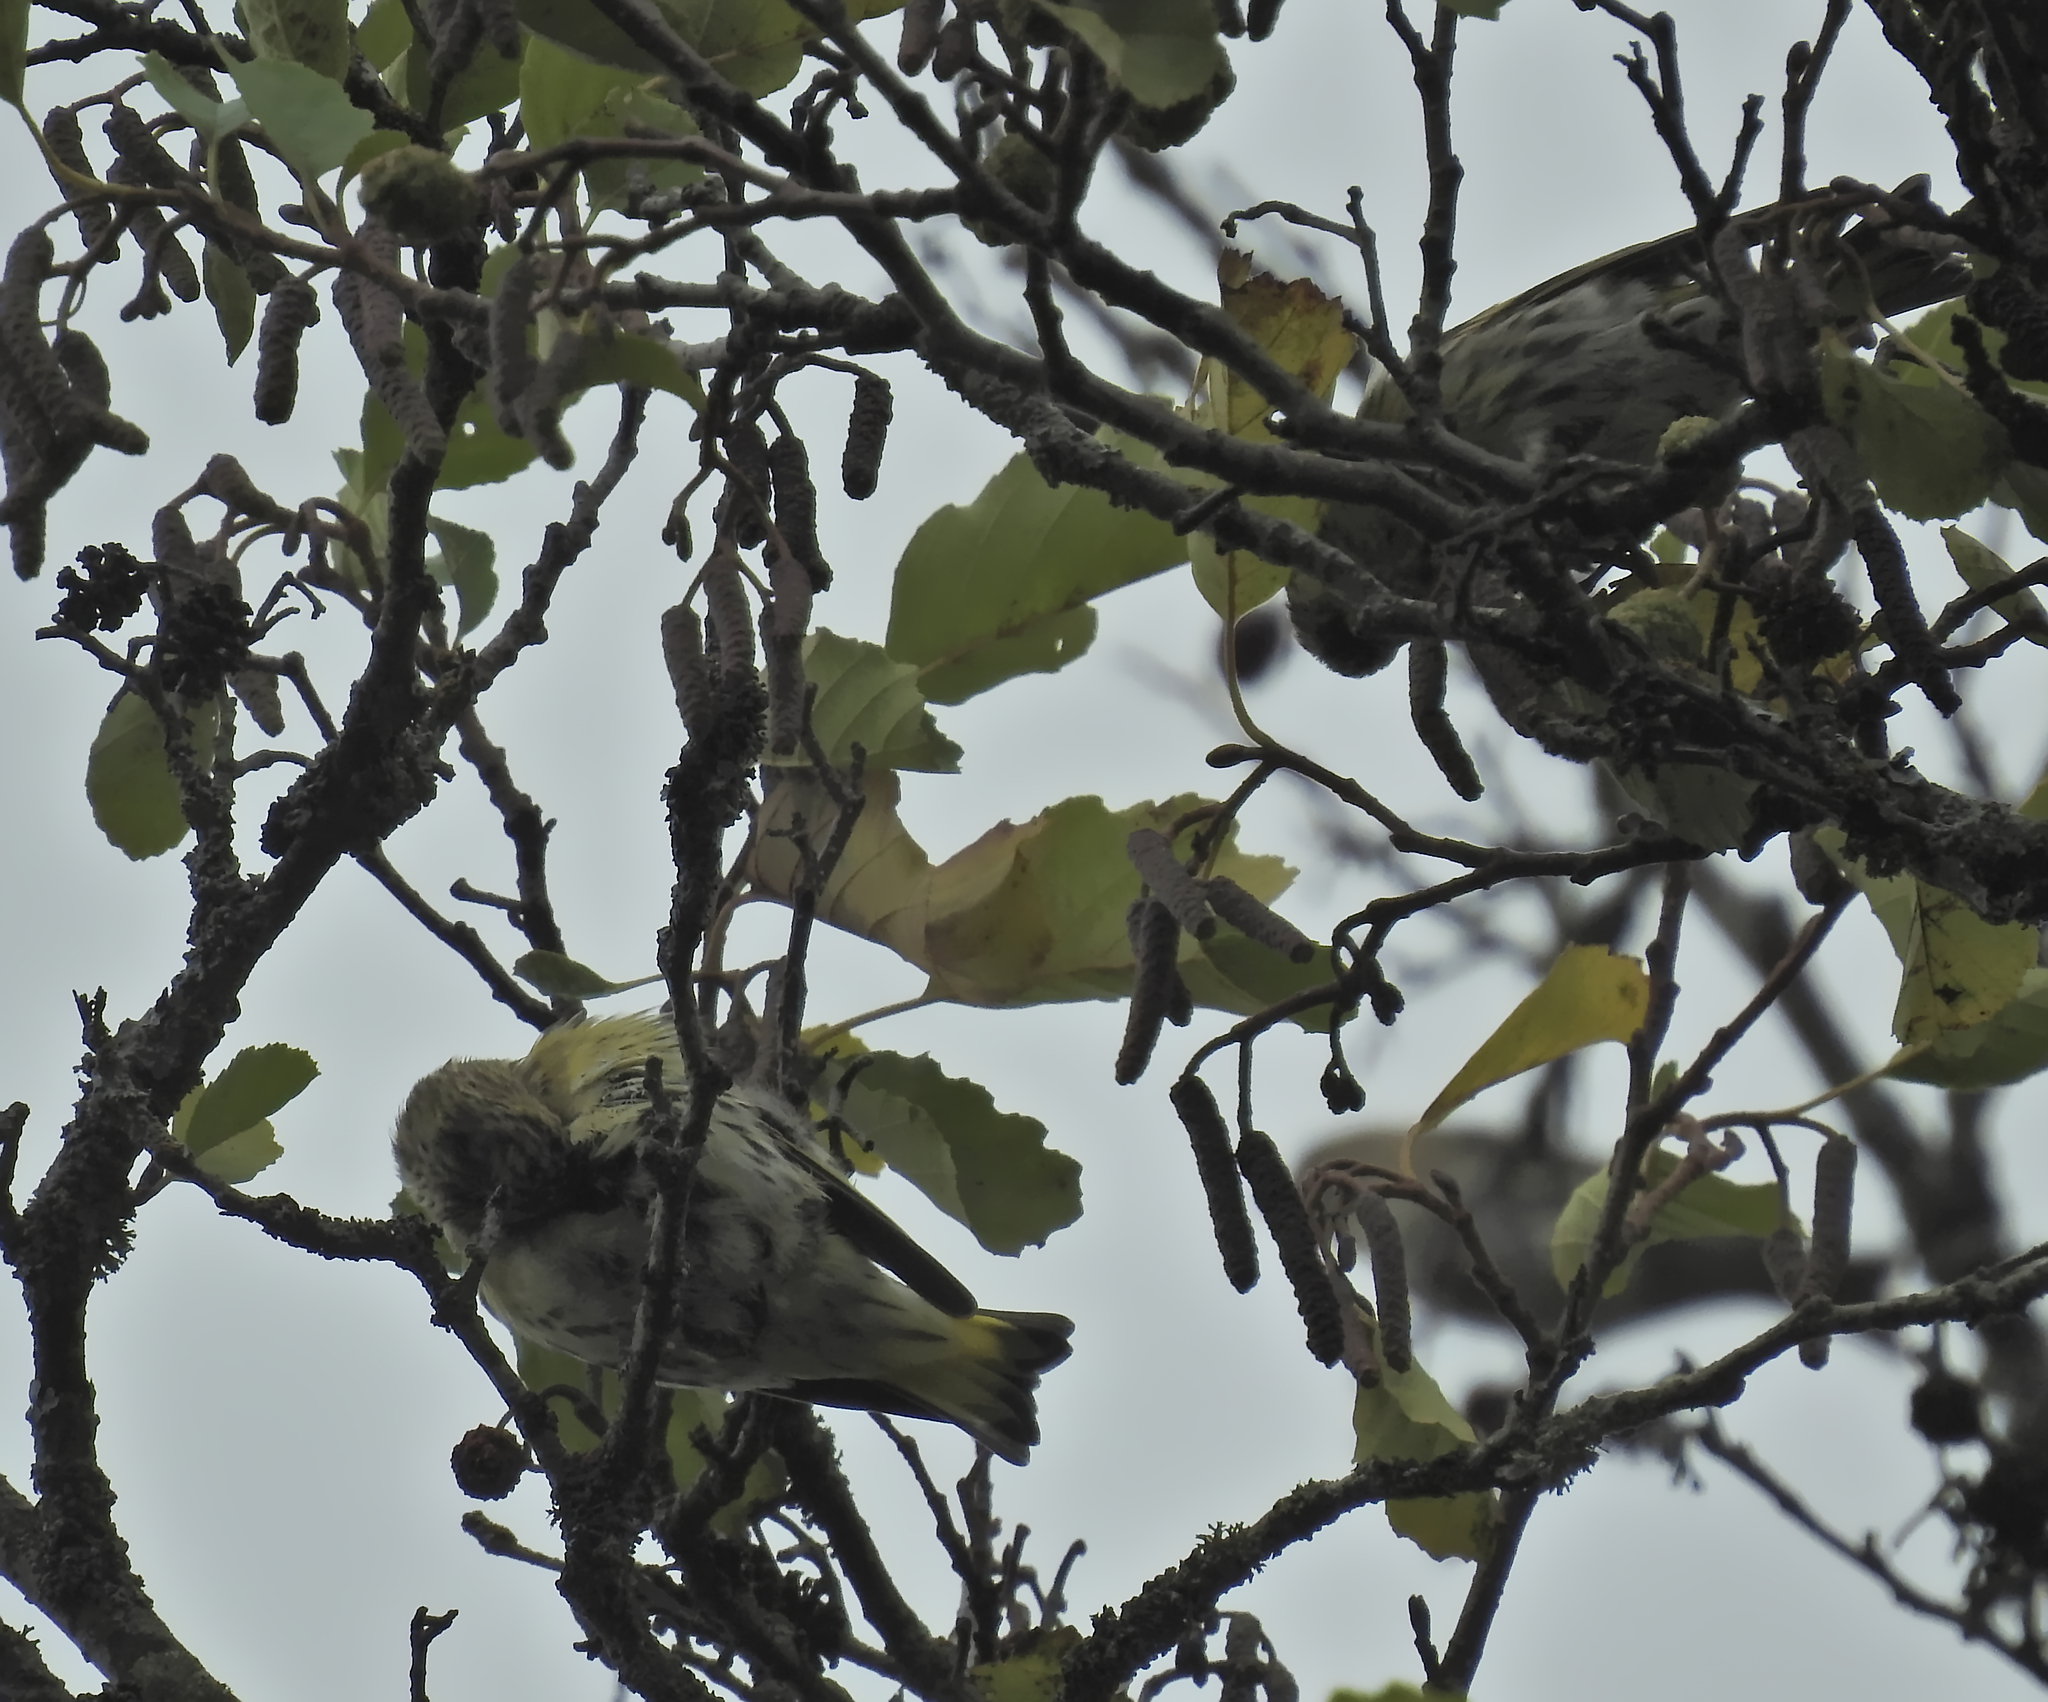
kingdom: Animalia
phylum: Chordata
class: Aves
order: Passeriformes
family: Fringillidae
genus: Spinus
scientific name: Spinus spinus
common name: Eurasian siskin
